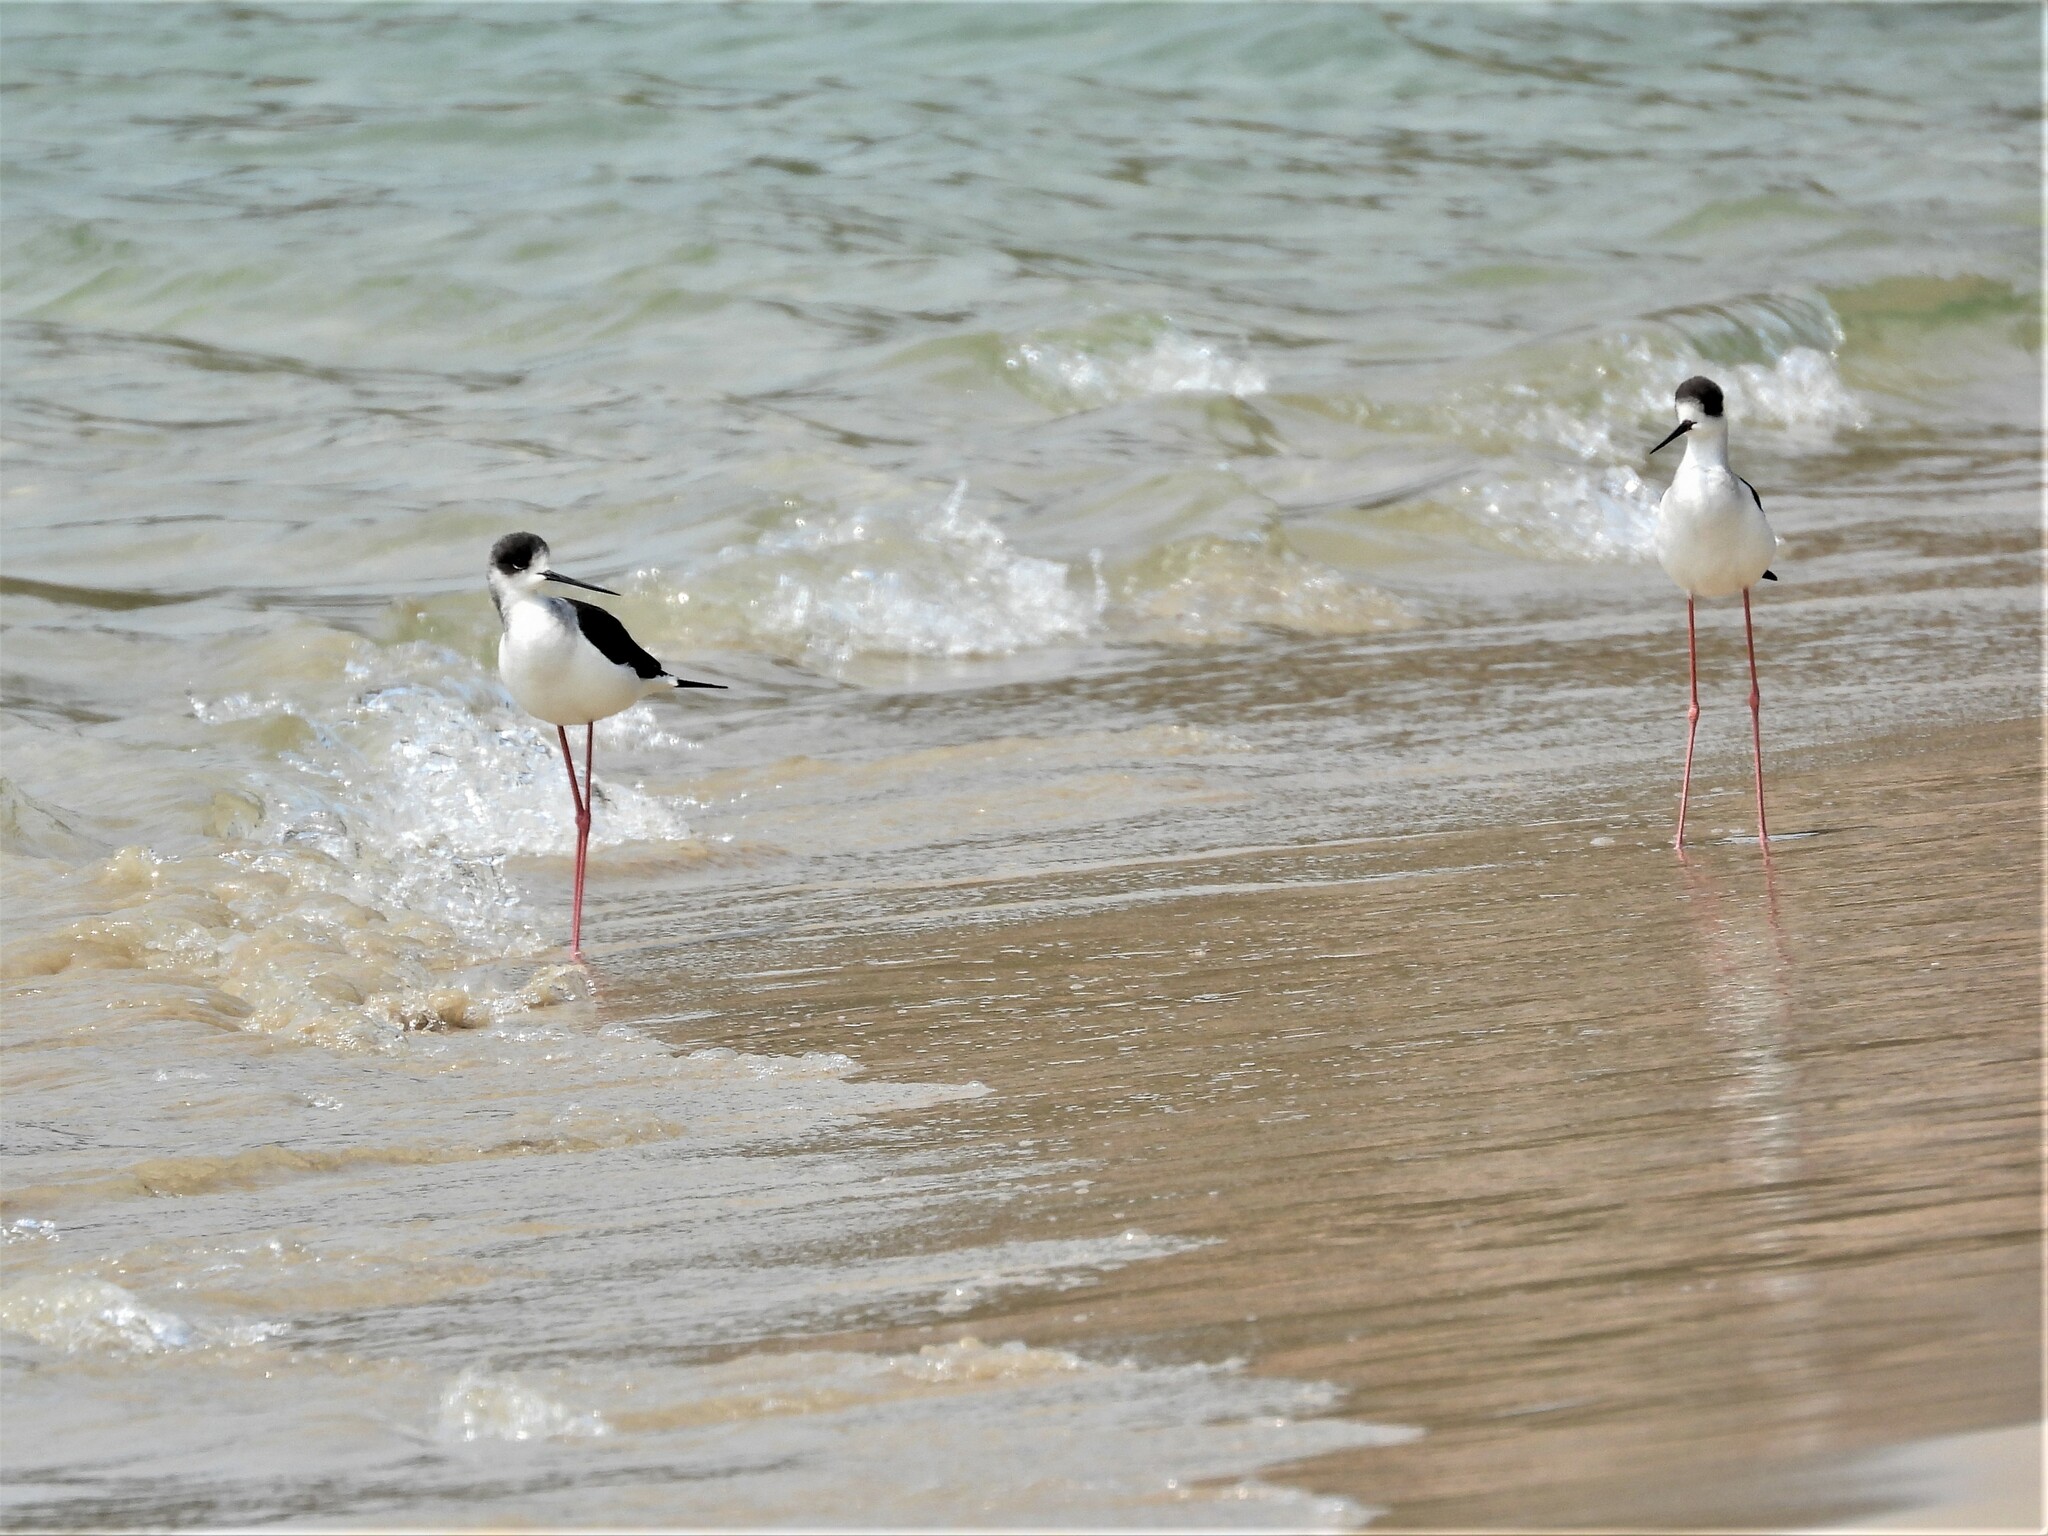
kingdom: Animalia
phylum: Chordata
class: Aves
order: Charadriiformes
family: Recurvirostridae
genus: Himantopus
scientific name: Himantopus himantopus
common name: Black-winged stilt
